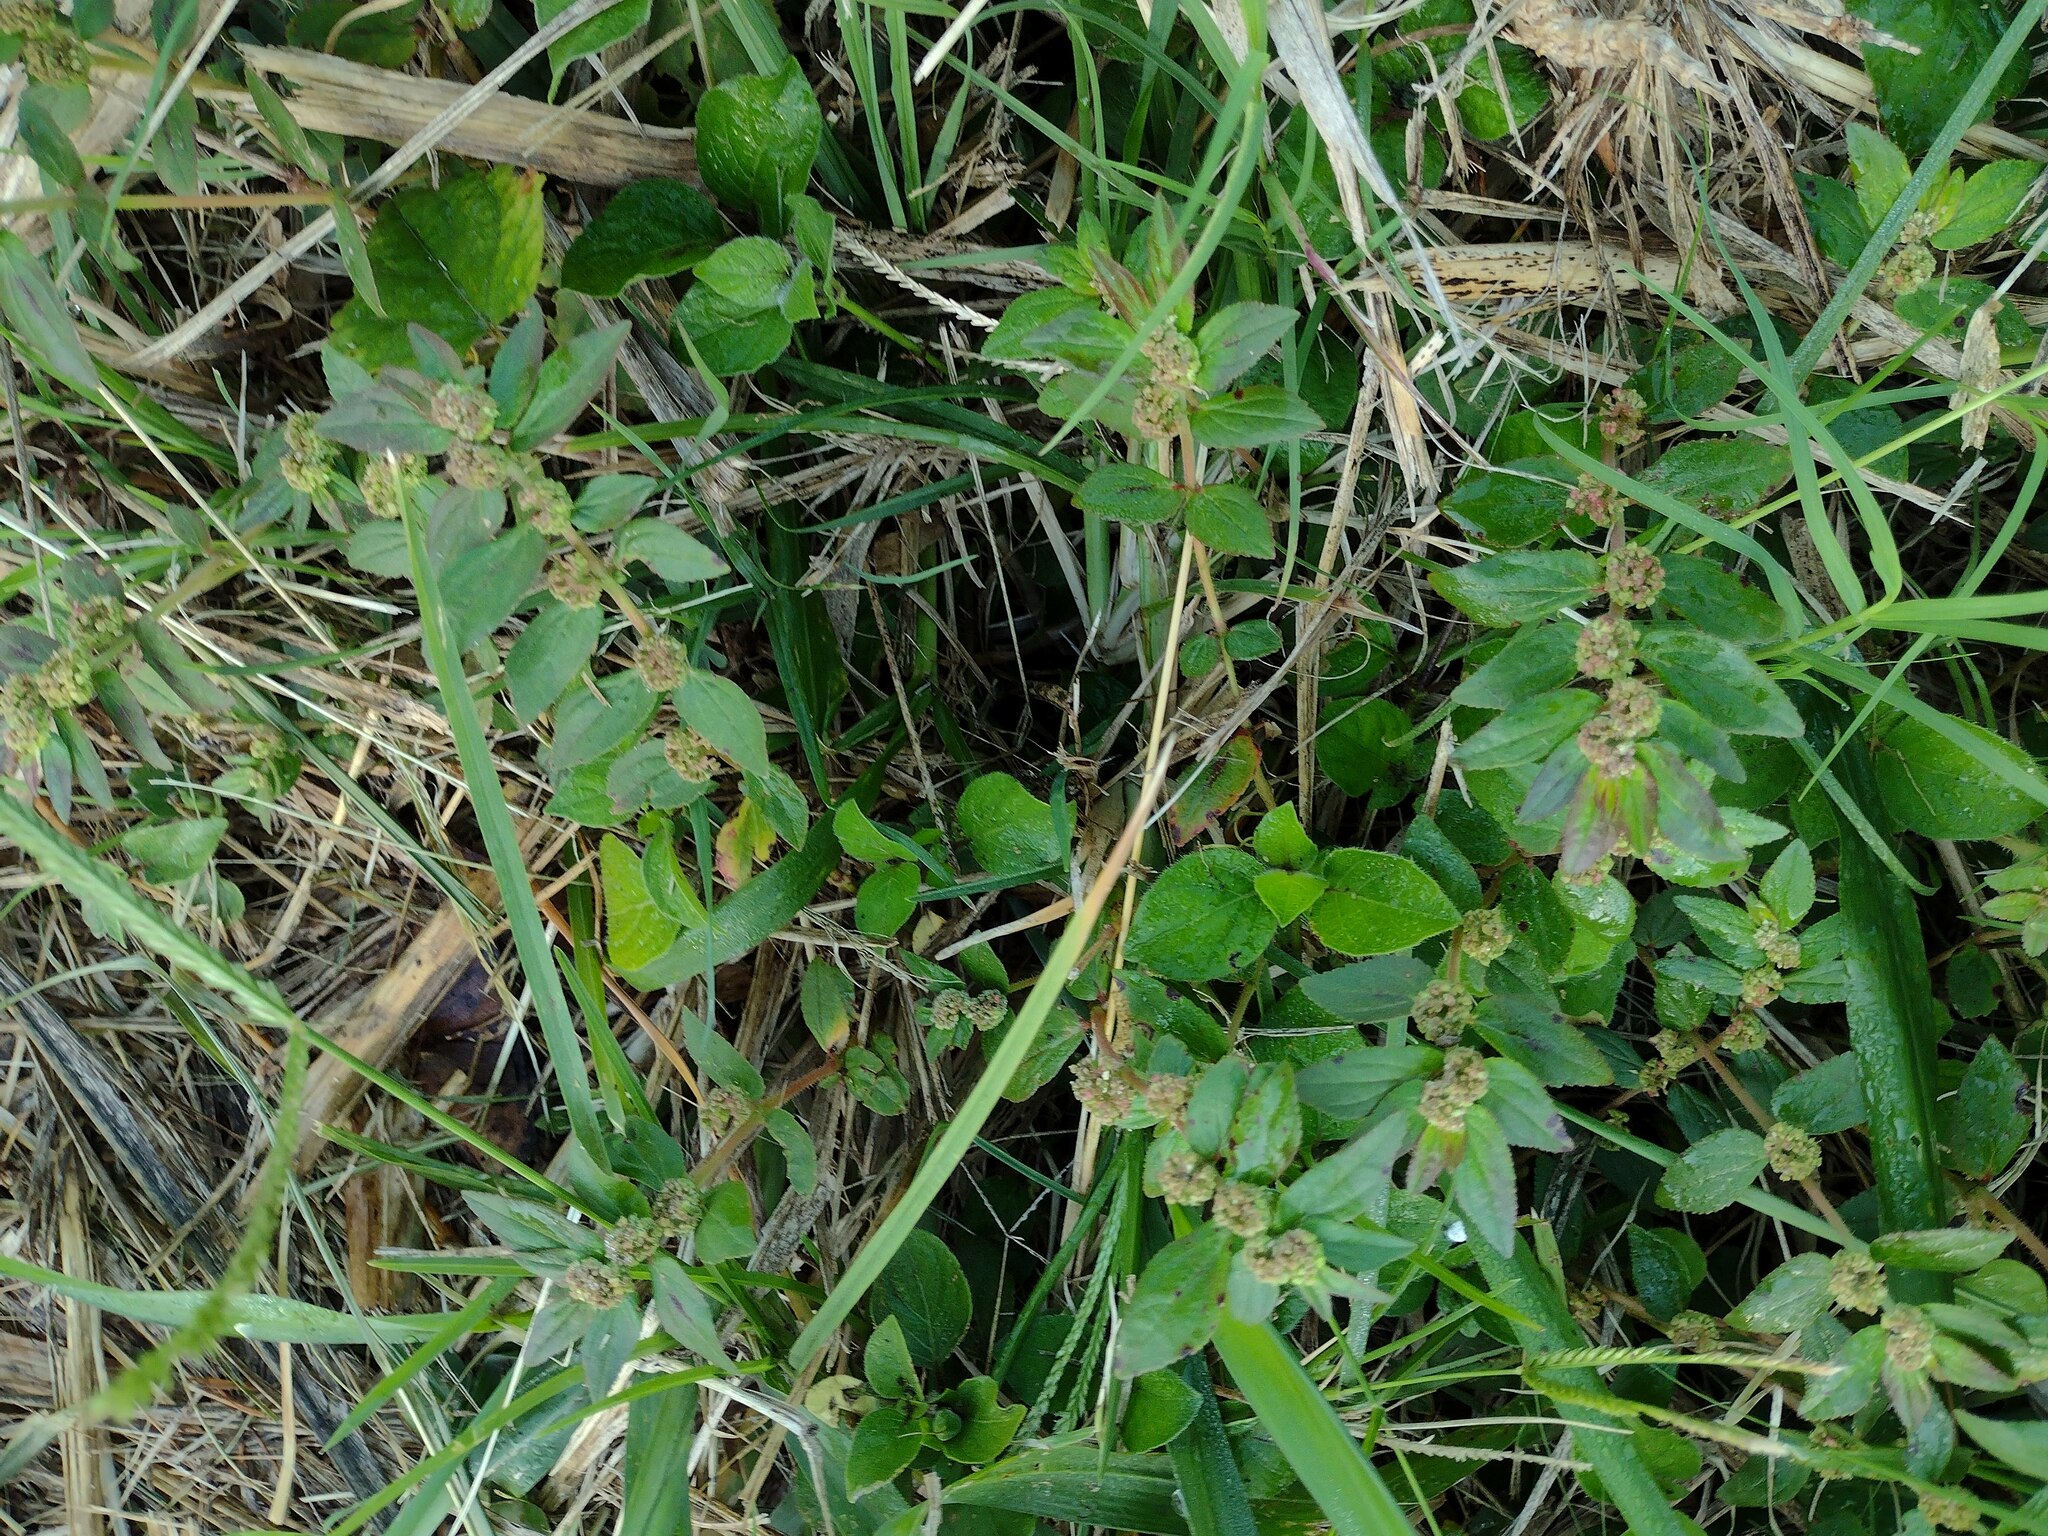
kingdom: Plantae
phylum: Tracheophyta
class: Magnoliopsida
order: Malpighiales
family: Euphorbiaceae
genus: Euphorbia
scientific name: Euphorbia hirta
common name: Pillpod sandmat
